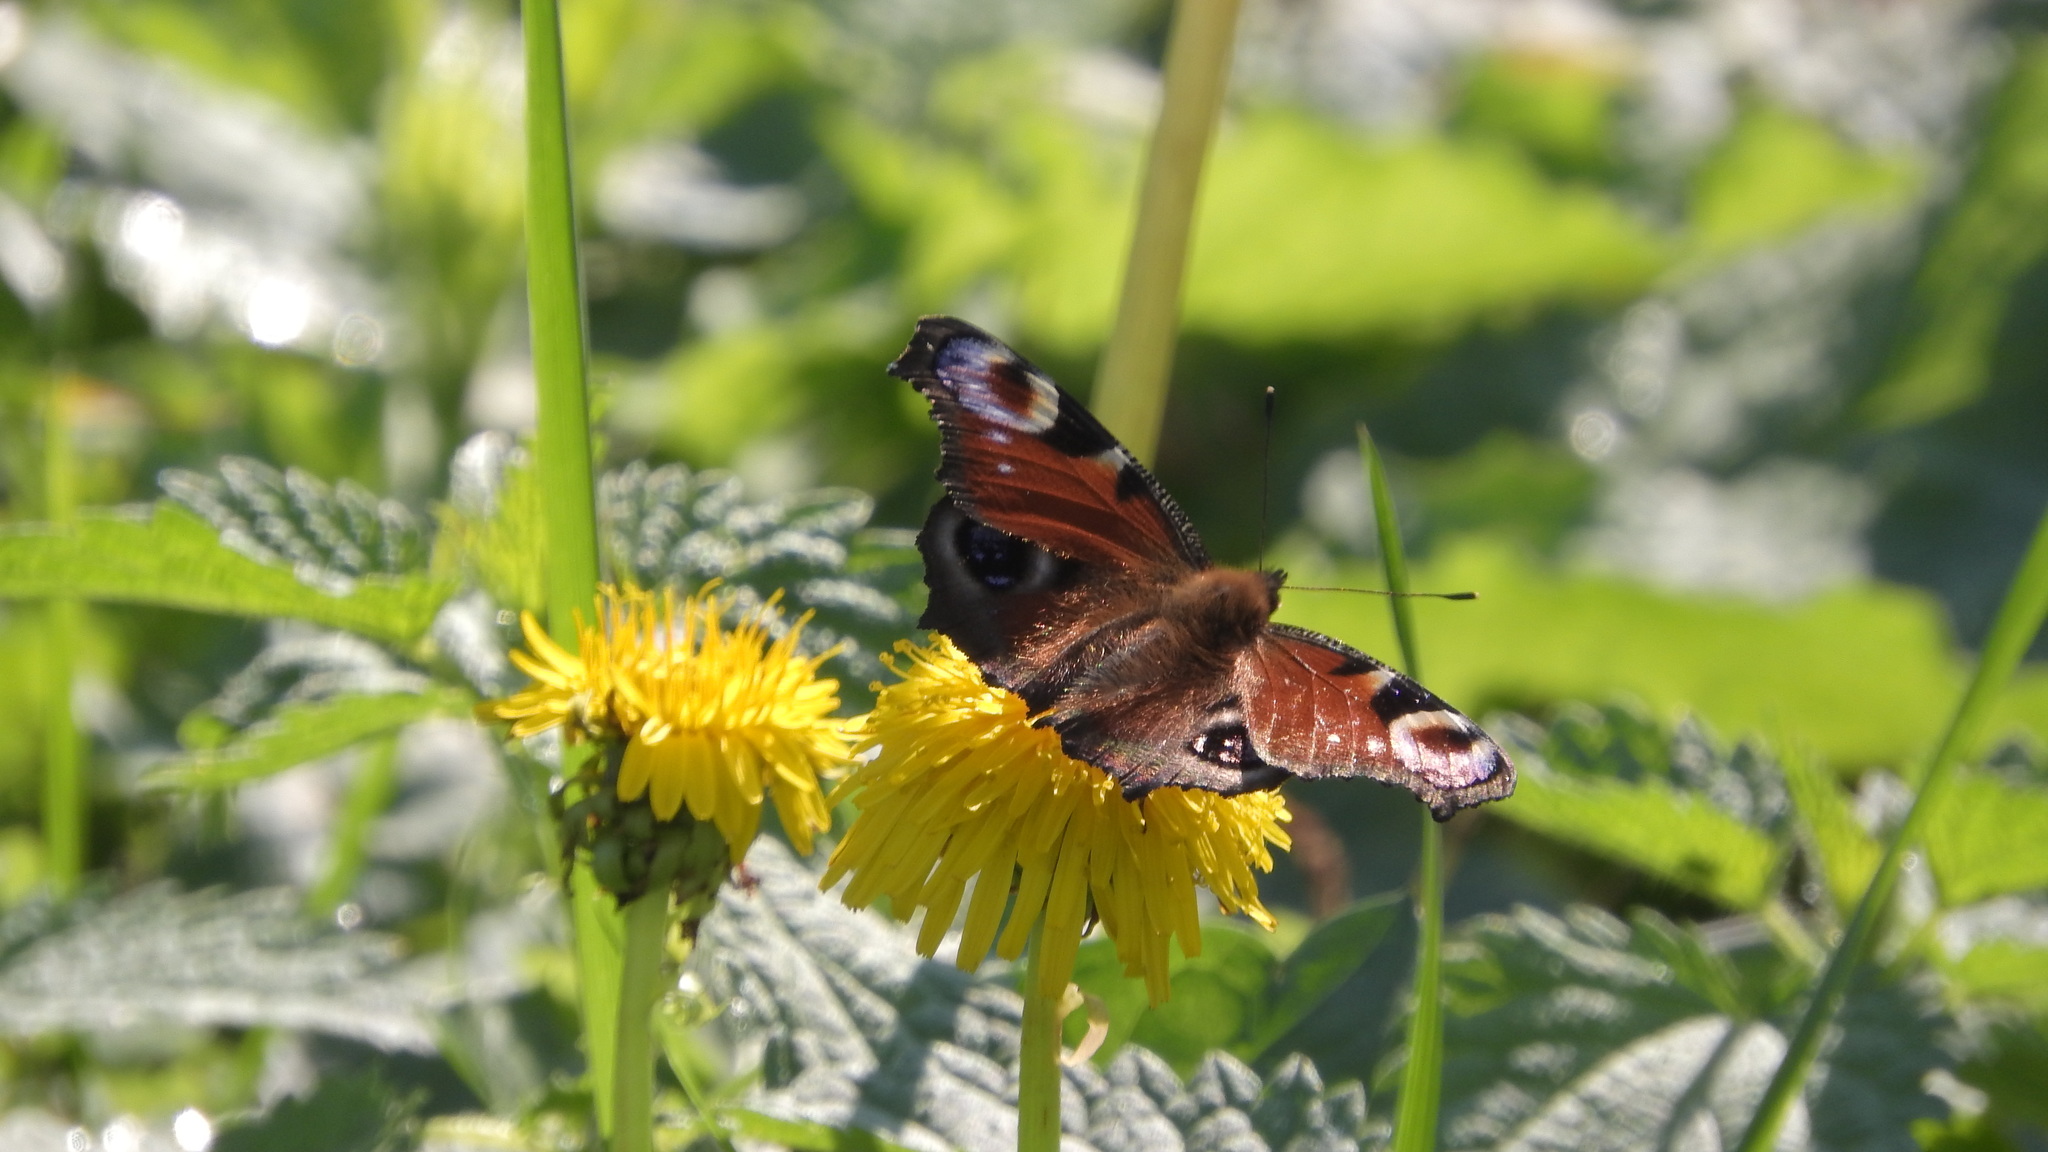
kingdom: Animalia
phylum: Arthropoda
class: Insecta
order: Lepidoptera
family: Nymphalidae
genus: Aglais
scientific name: Aglais io
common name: Peacock
